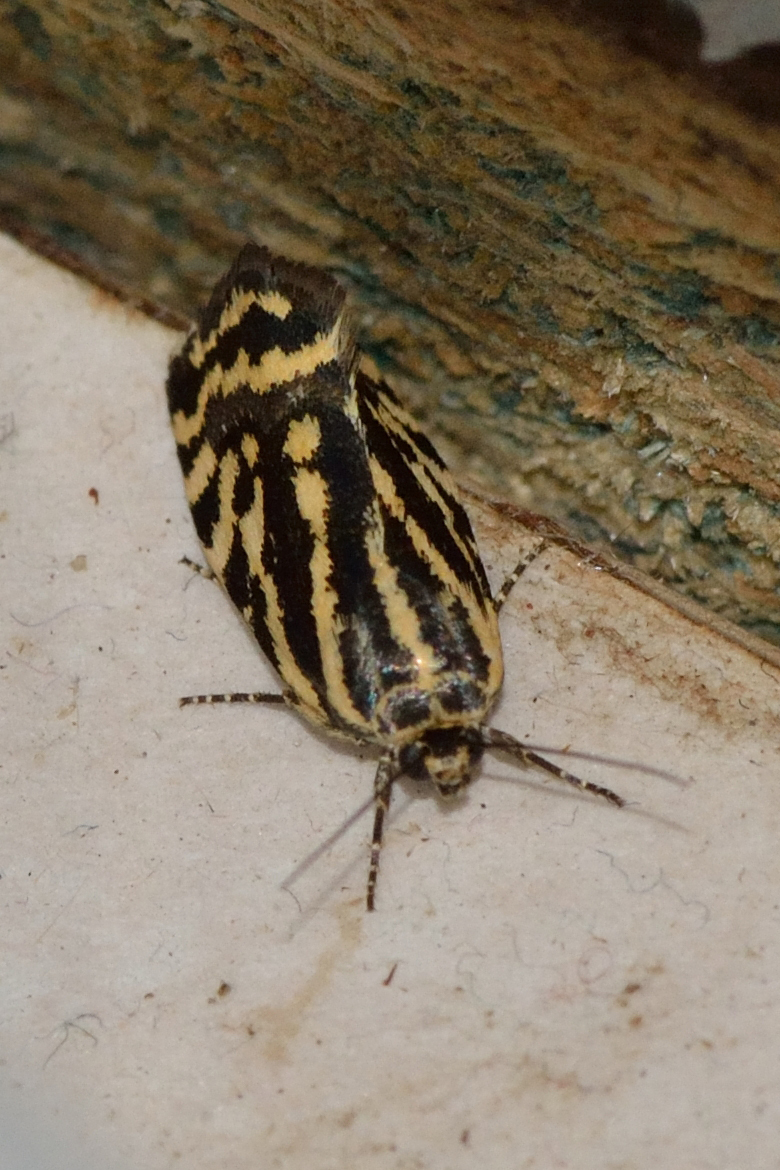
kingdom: Animalia
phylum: Arthropoda
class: Insecta
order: Lepidoptera
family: Noctuidae
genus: Acontia
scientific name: Acontia trabealis
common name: Spotted sulphur
